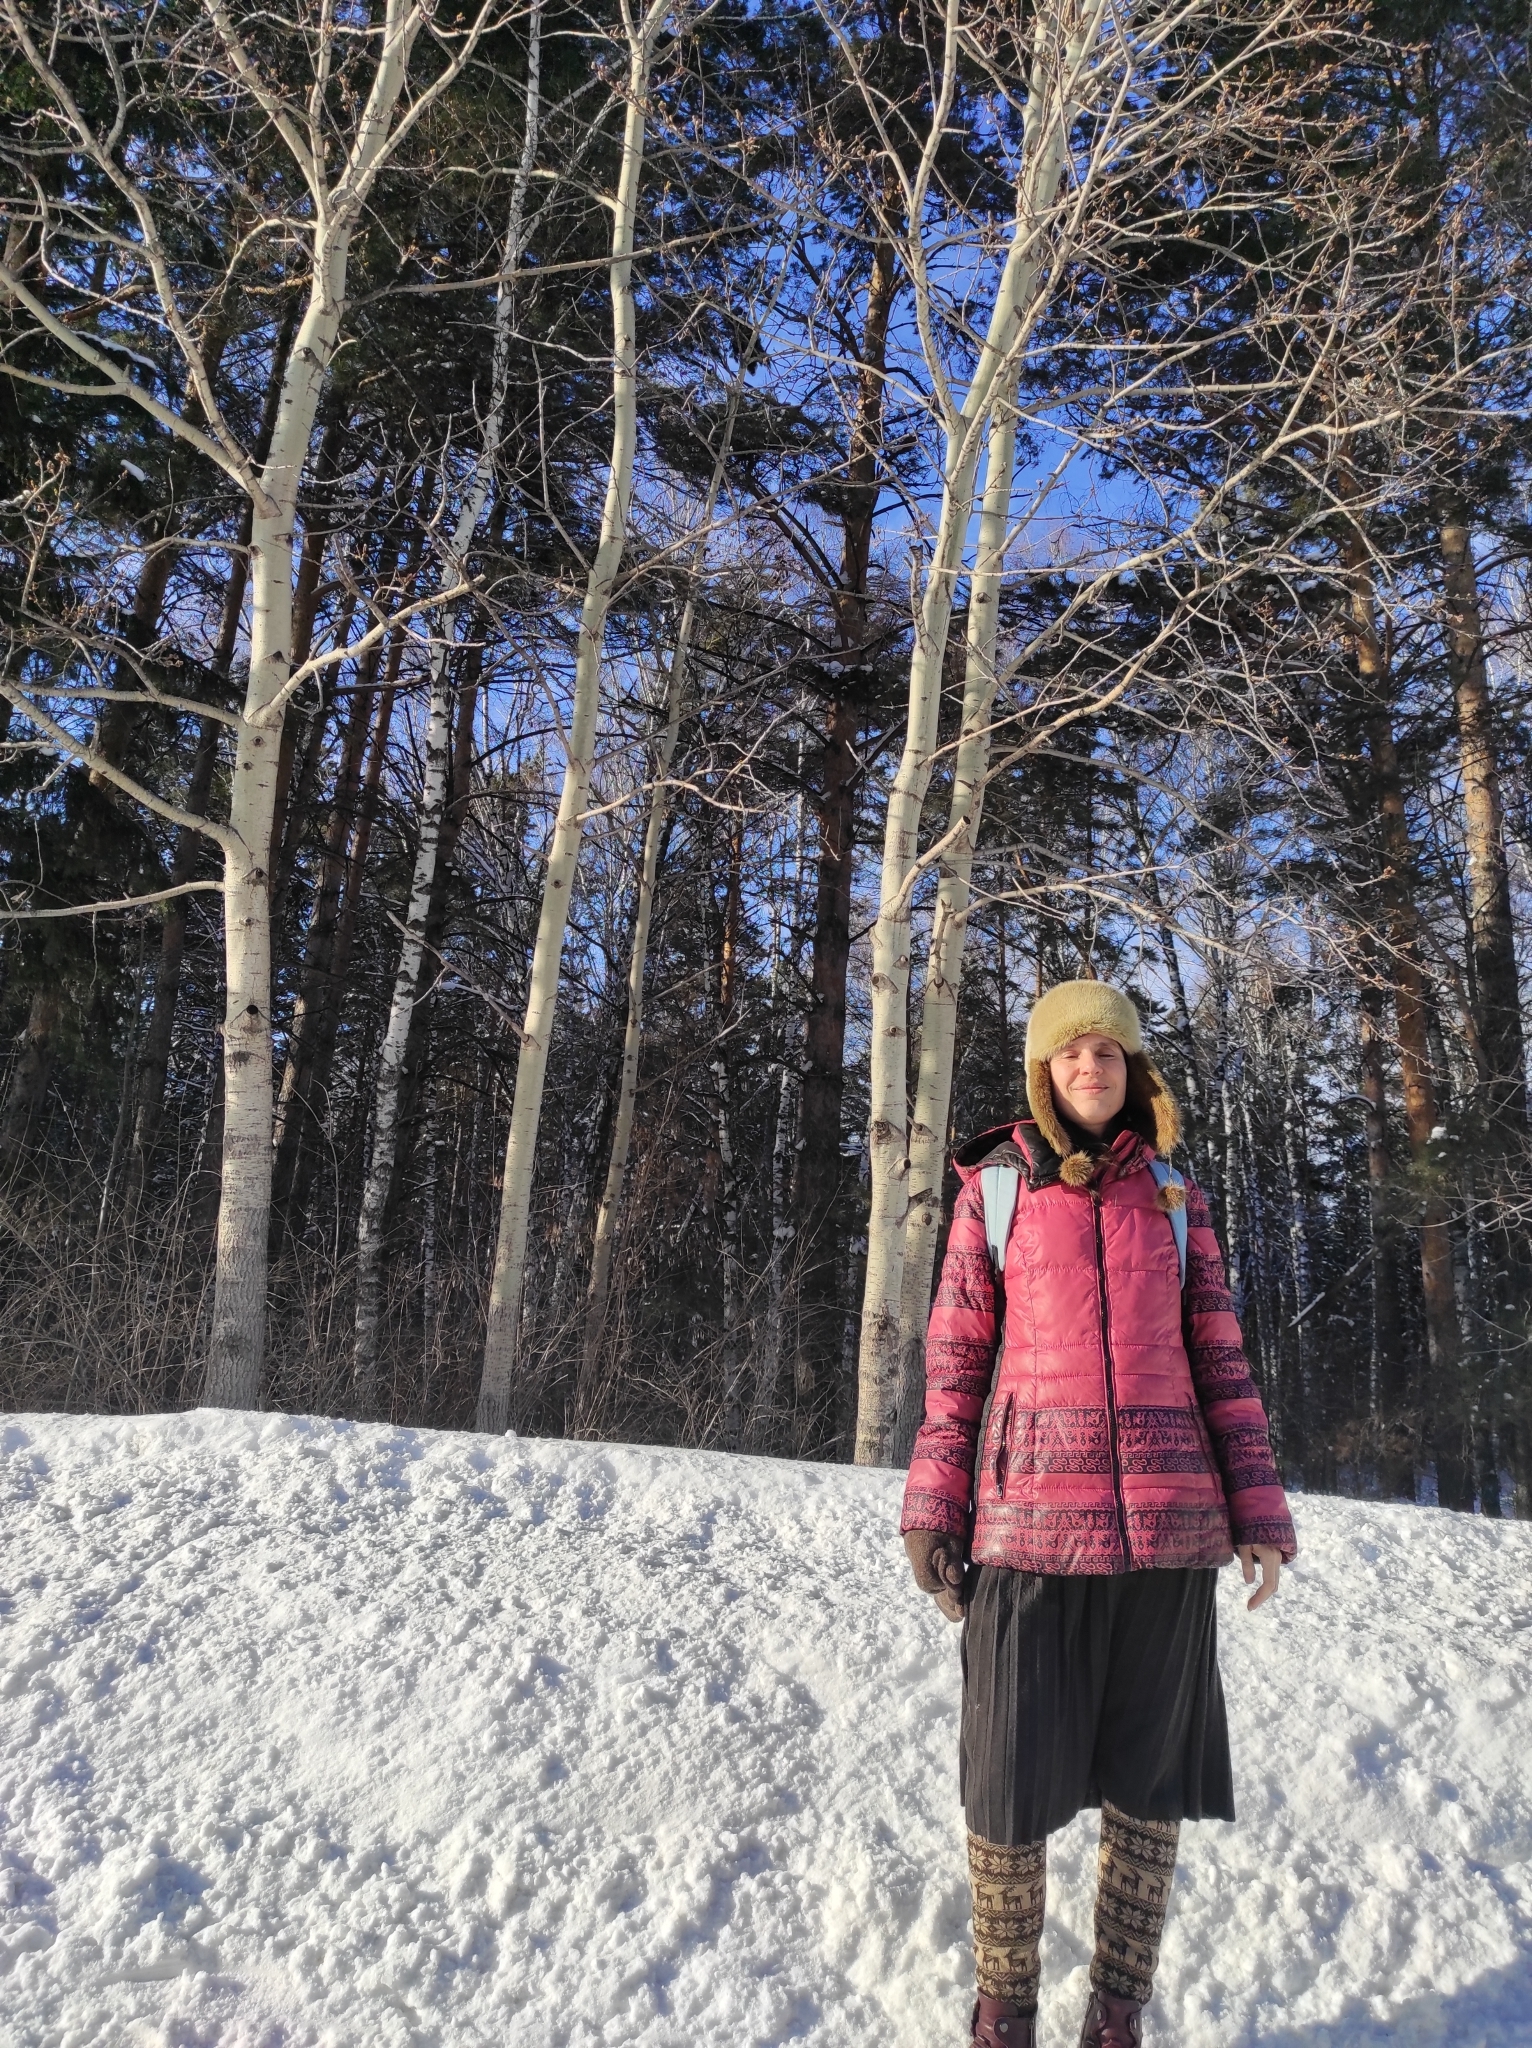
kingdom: Plantae
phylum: Tracheophyta
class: Magnoliopsida
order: Malpighiales
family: Salicaceae
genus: Populus
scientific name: Populus tremula
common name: European aspen
